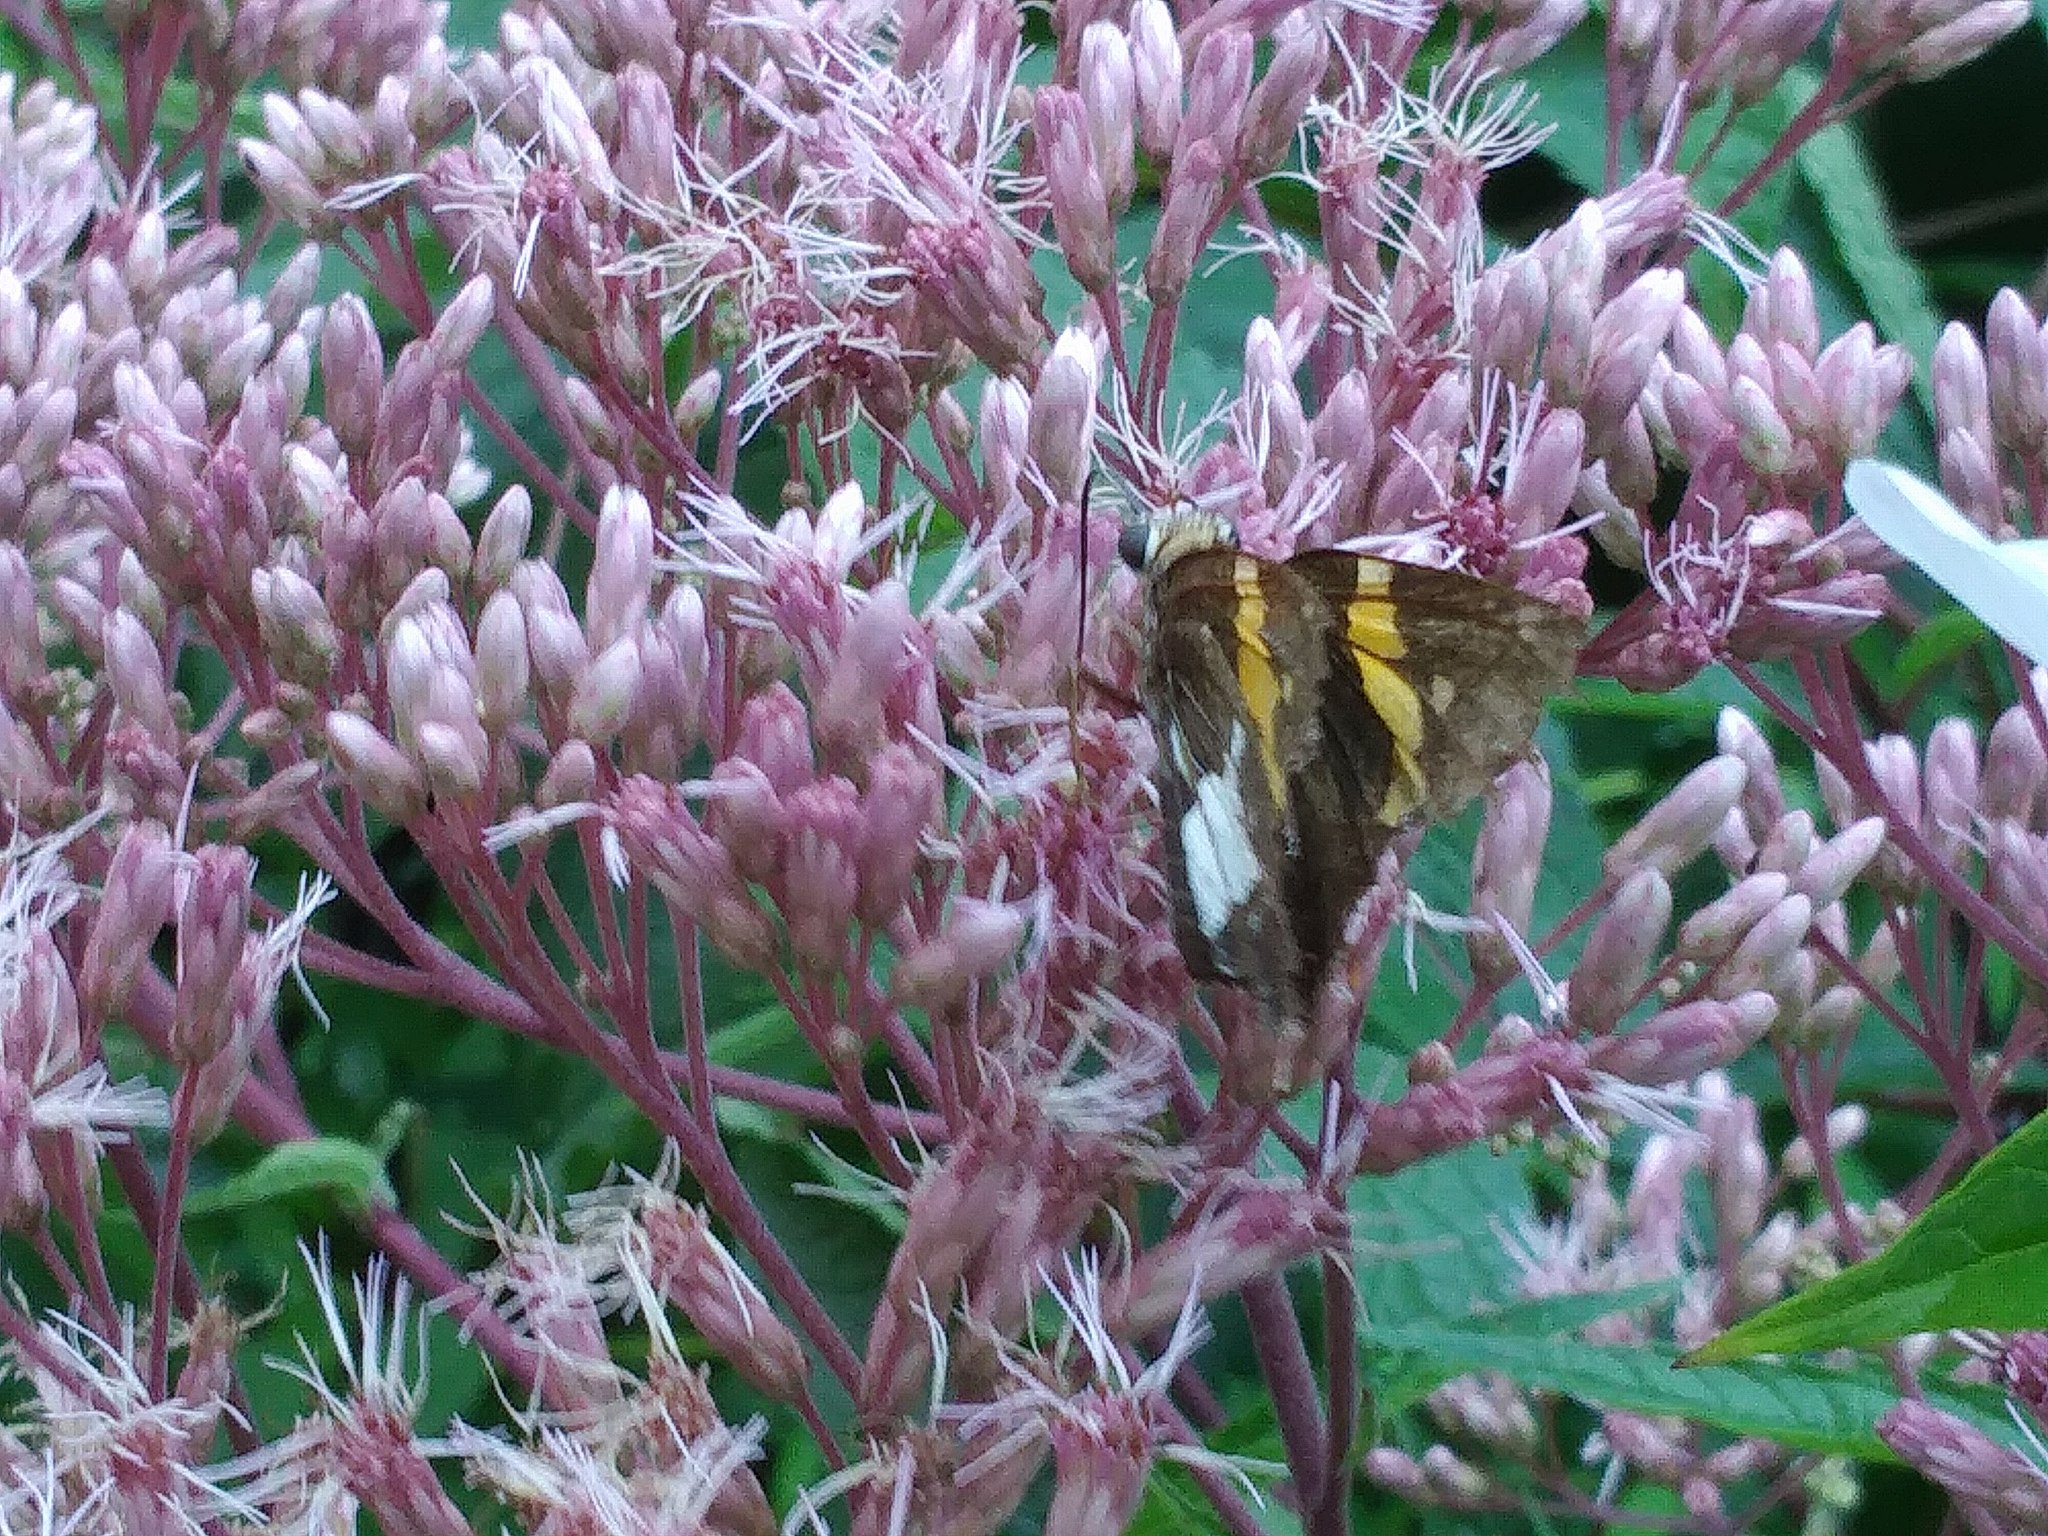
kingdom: Animalia
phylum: Arthropoda
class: Insecta
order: Lepidoptera
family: Hesperiidae
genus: Epargyreus
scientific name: Epargyreus clarus
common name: Silver-spotted skipper
